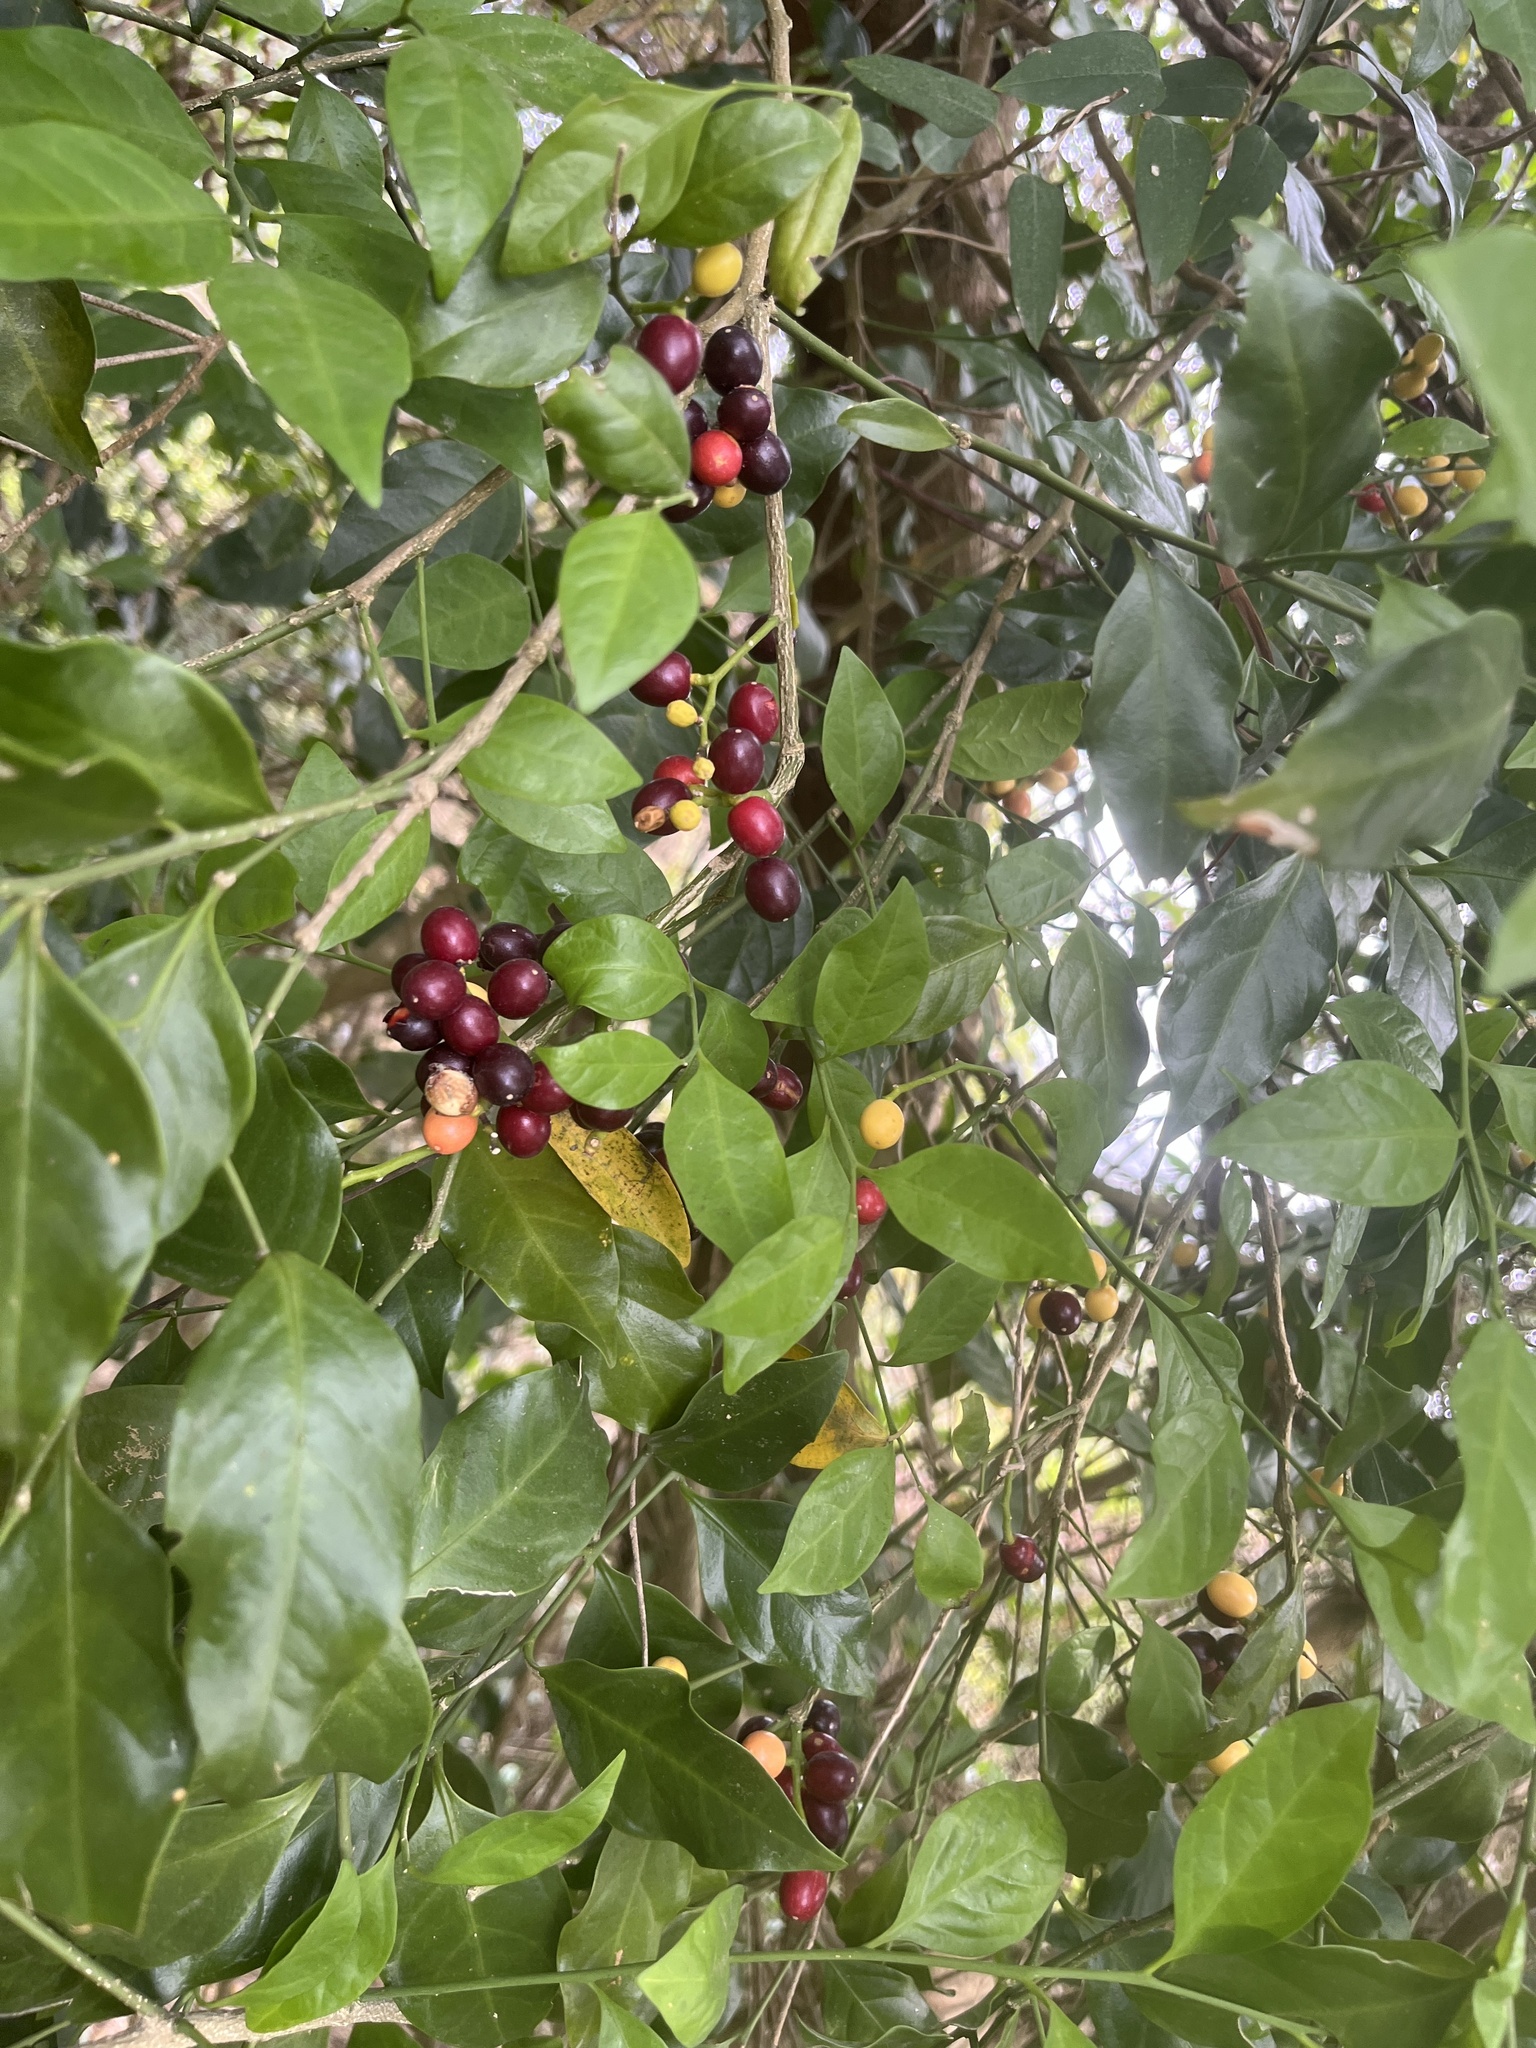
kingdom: Plantae
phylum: Tracheophyta
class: Magnoliopsida
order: Santalales
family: Opiliaceae
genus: Champereia
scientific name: Champereia manillana
